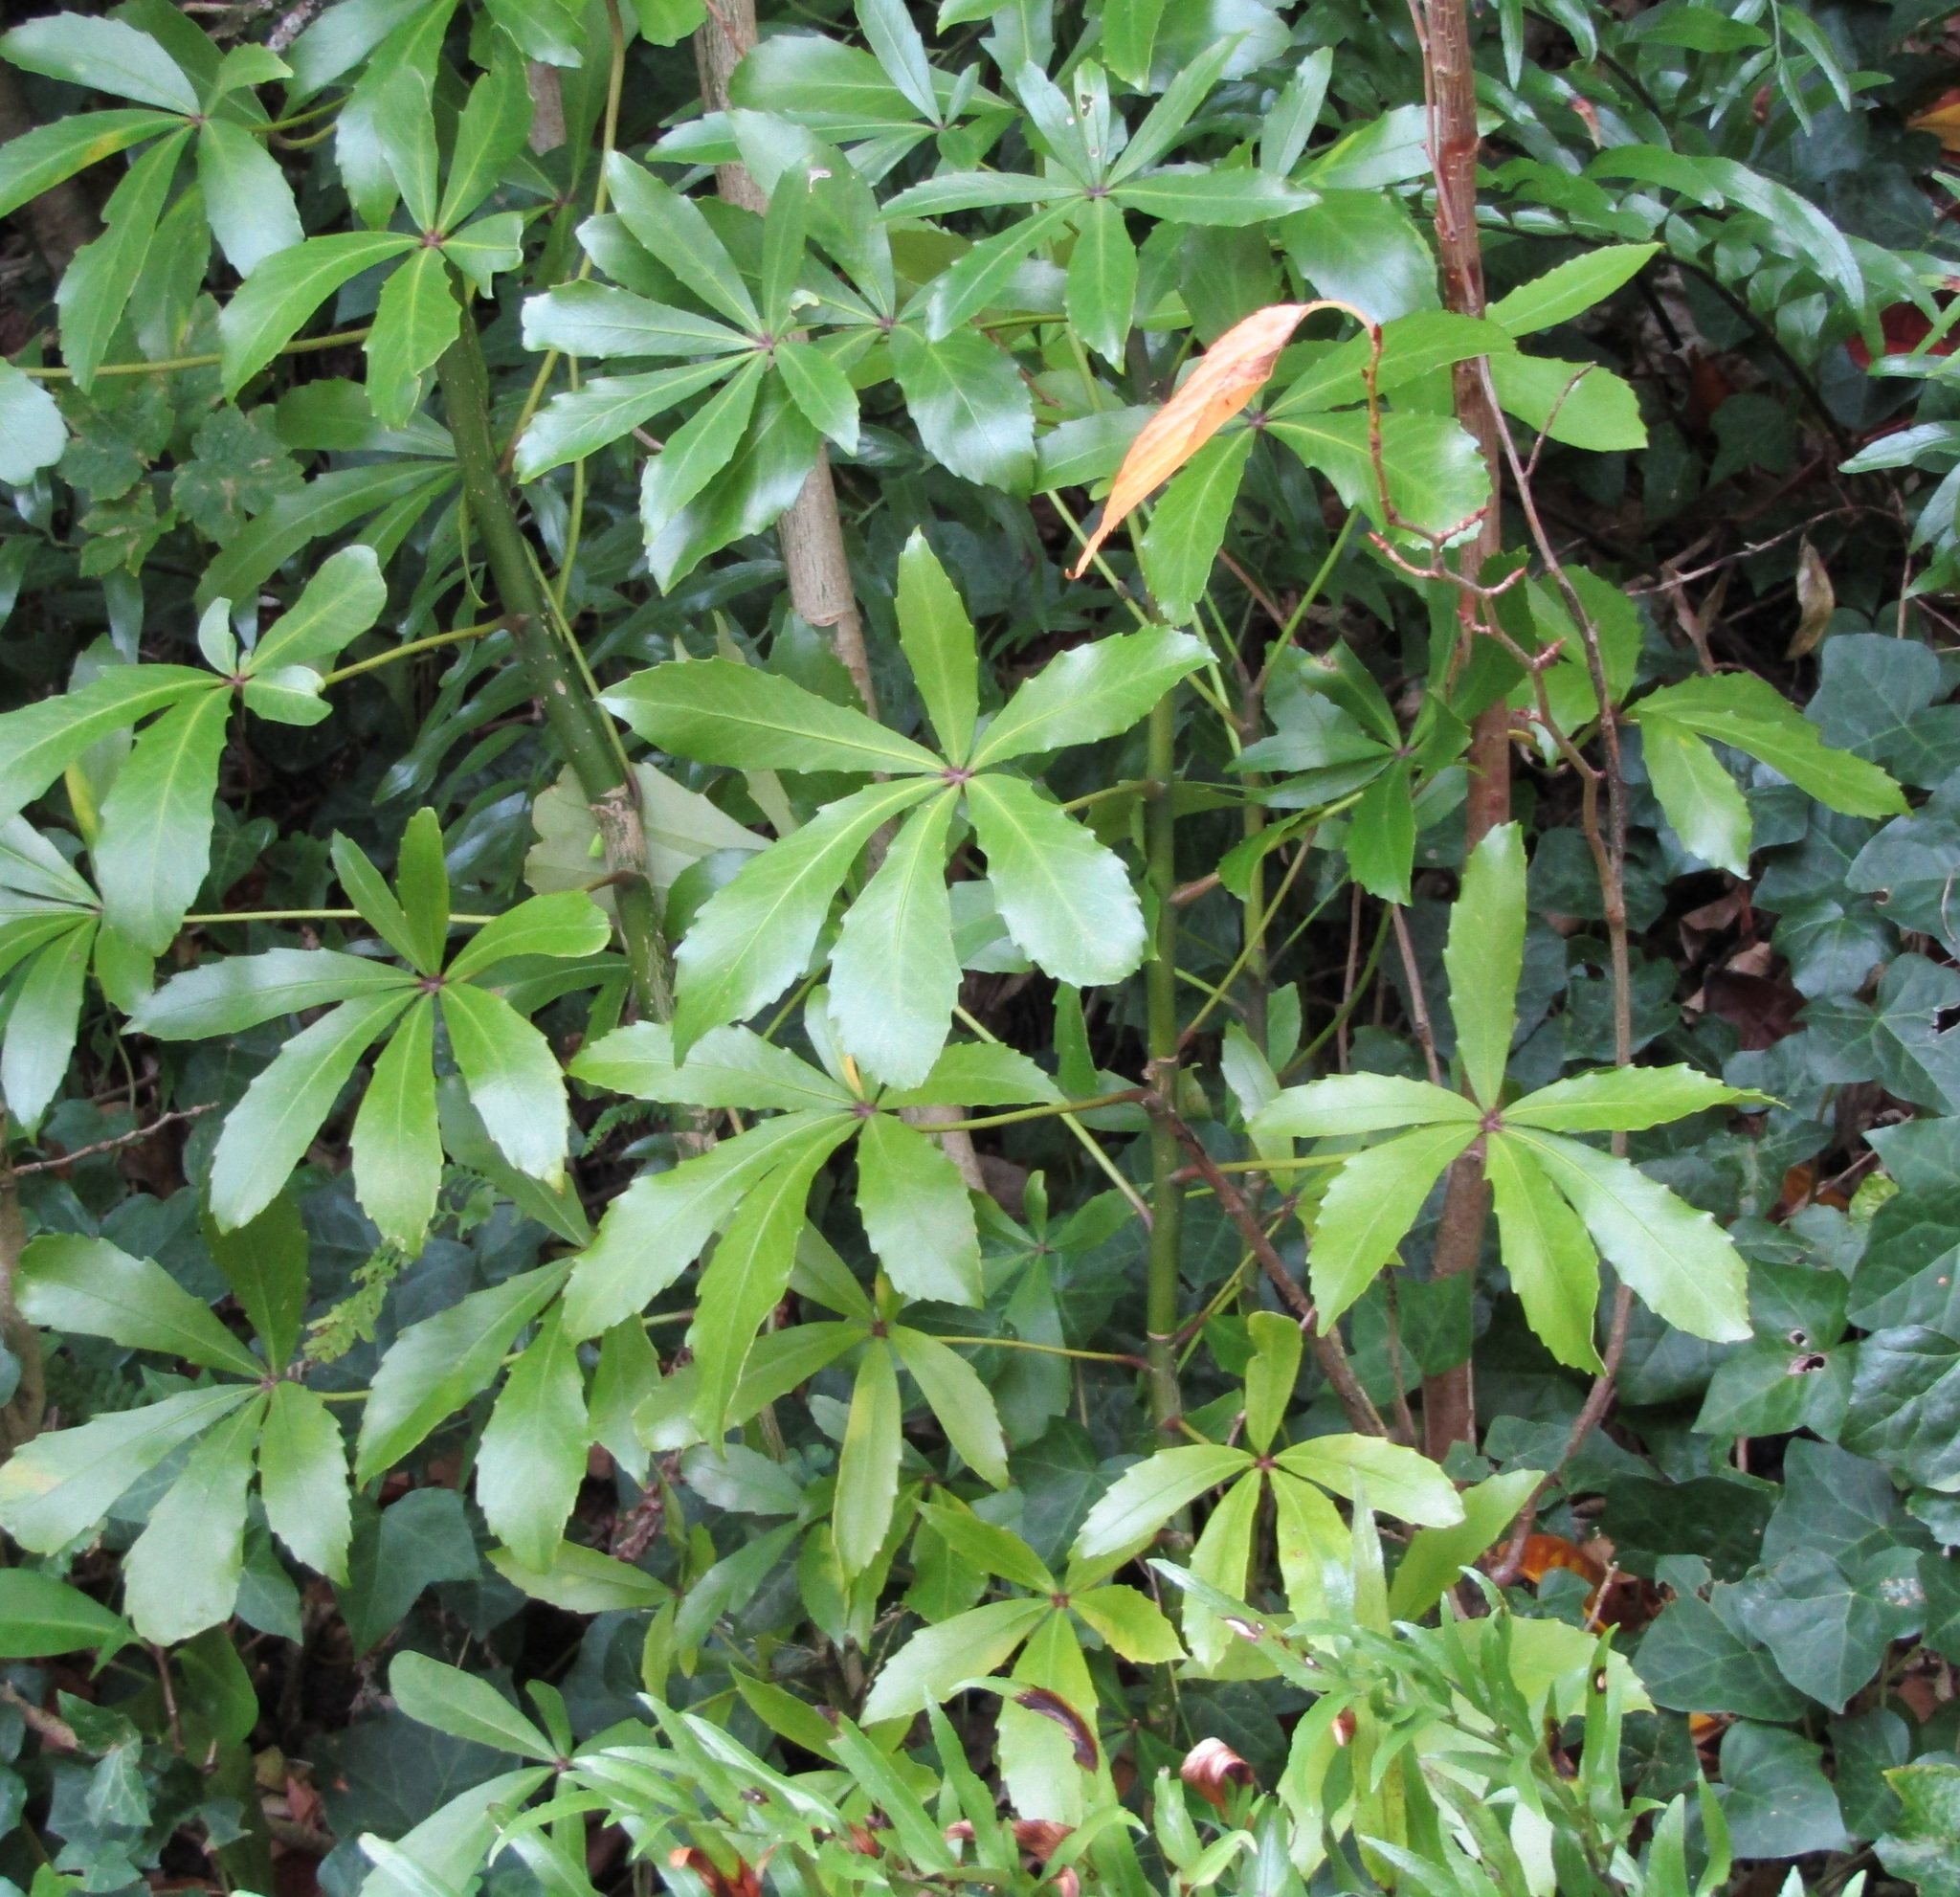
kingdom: Plantae
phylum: Tracheophyta
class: Magnoliopsida
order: Apiales
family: Araliaceae
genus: Pseudopanax
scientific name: Pseudopanax
